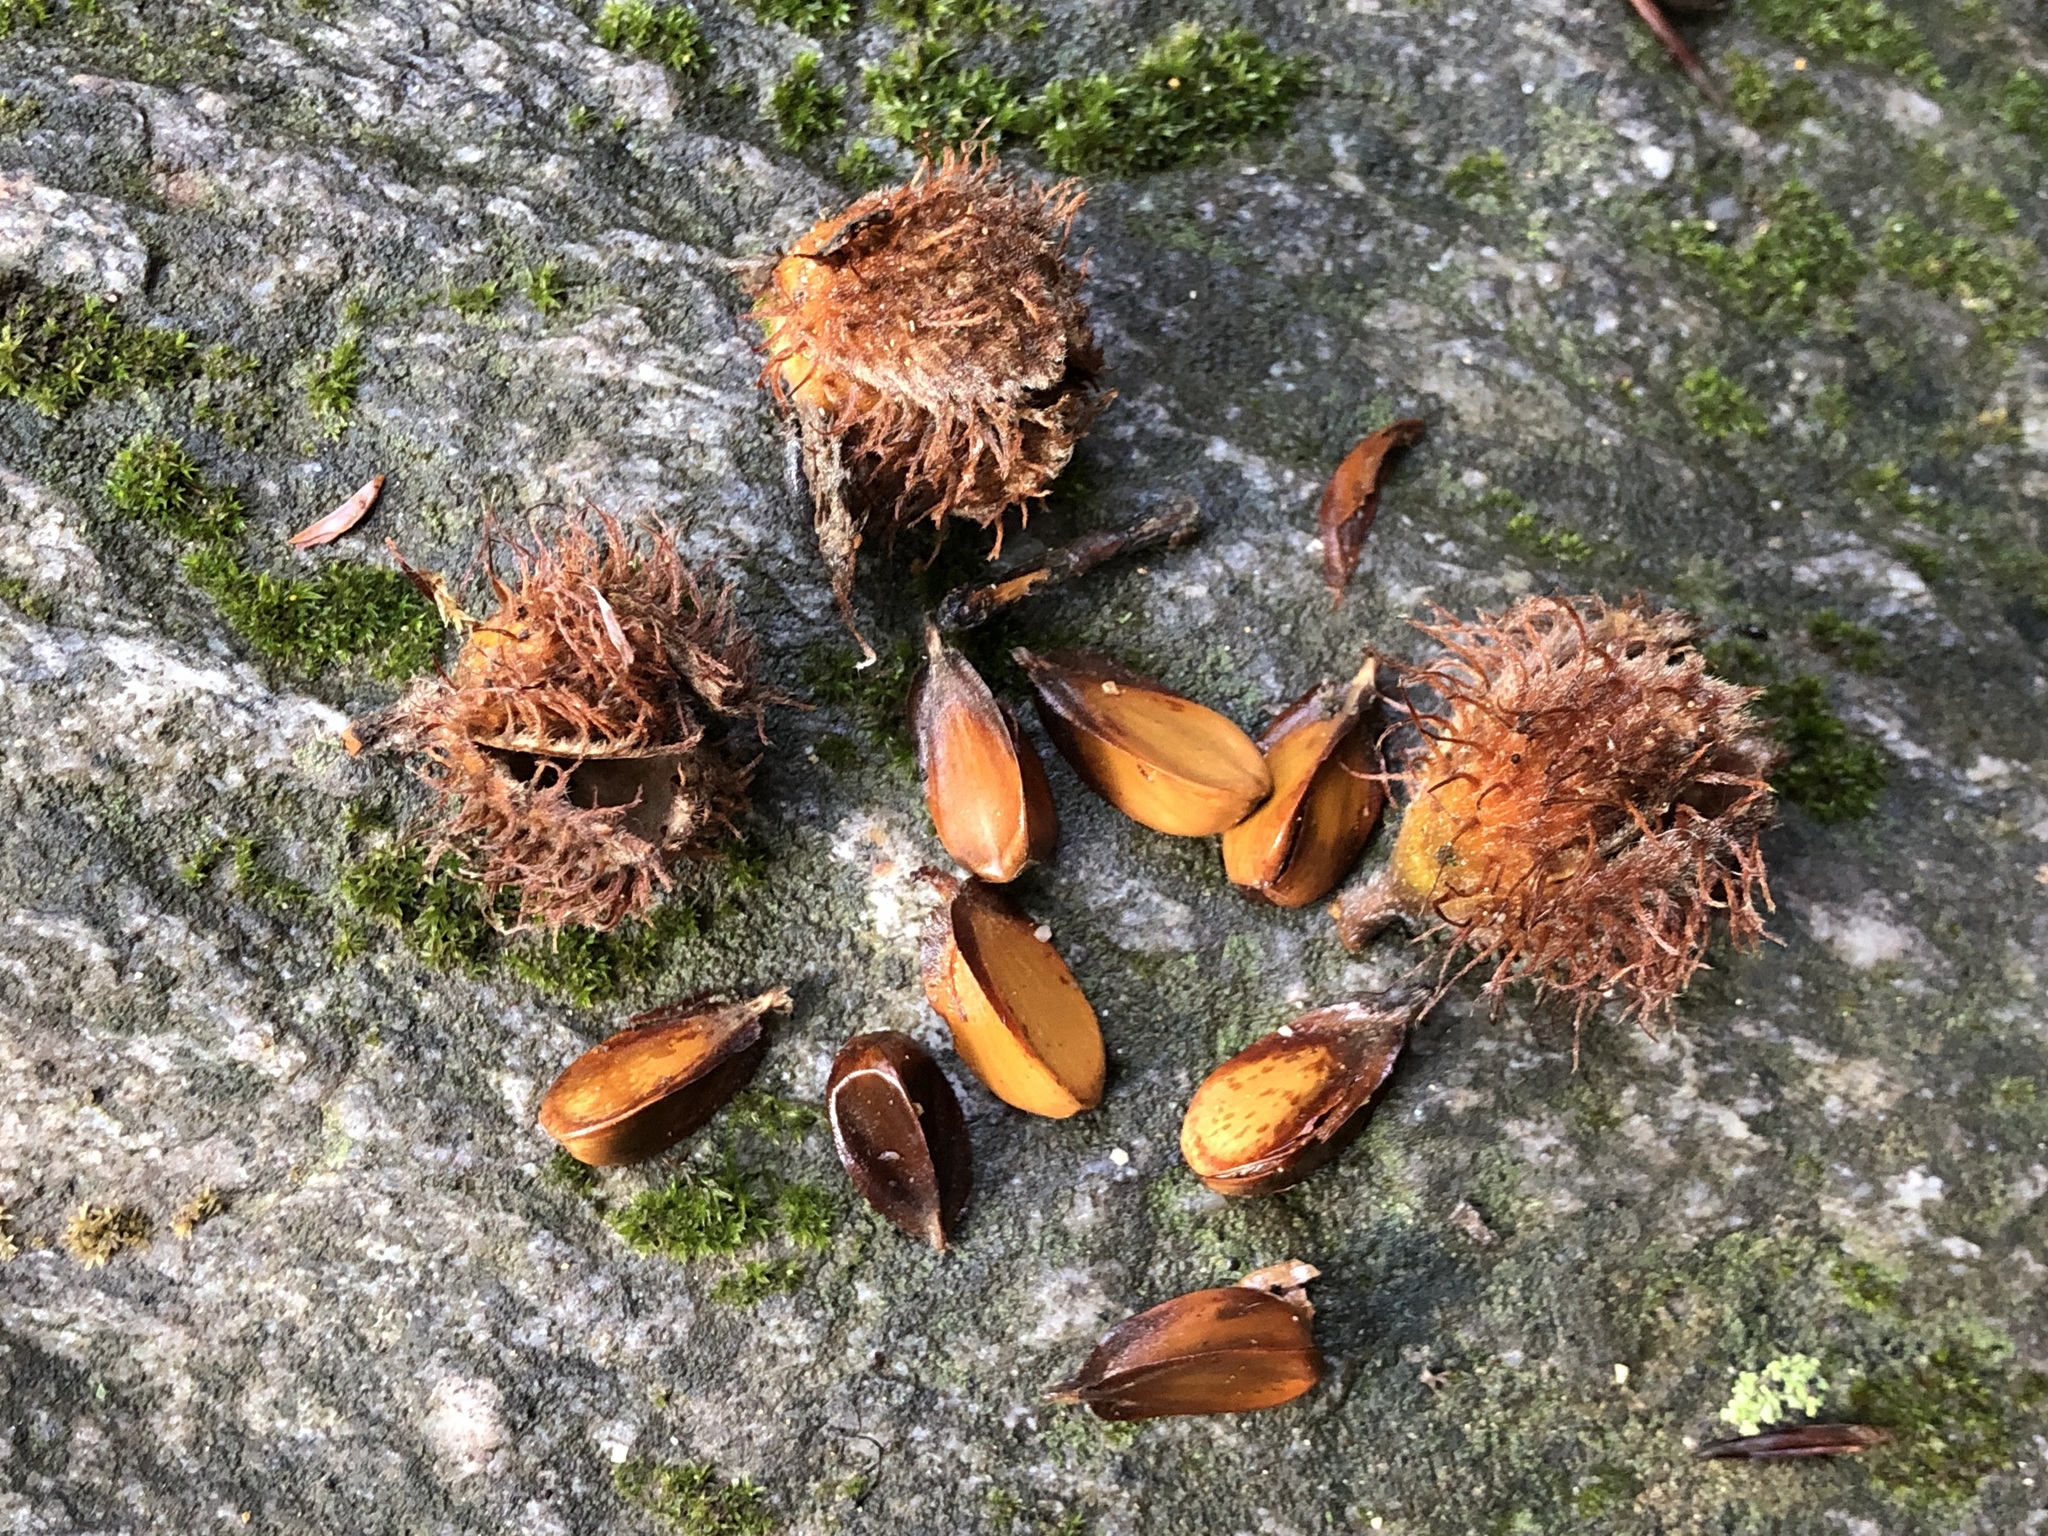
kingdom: Plantae
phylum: Tracheophyta
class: Magnoliopsida
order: Fagales
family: Fagaceae
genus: Fagus
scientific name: Fagus sylvatica
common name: Beech
